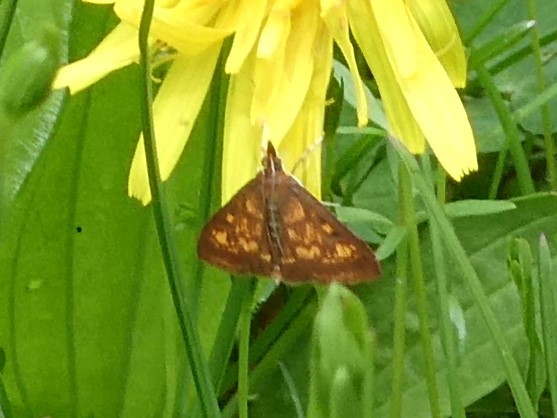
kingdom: Animalia
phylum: Arthropoda
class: Insecta
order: Lepidoptera
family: Crambidae
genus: Pyrausta
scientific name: Pyrausta acrionalis
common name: Mint-loving pyrausta moth
